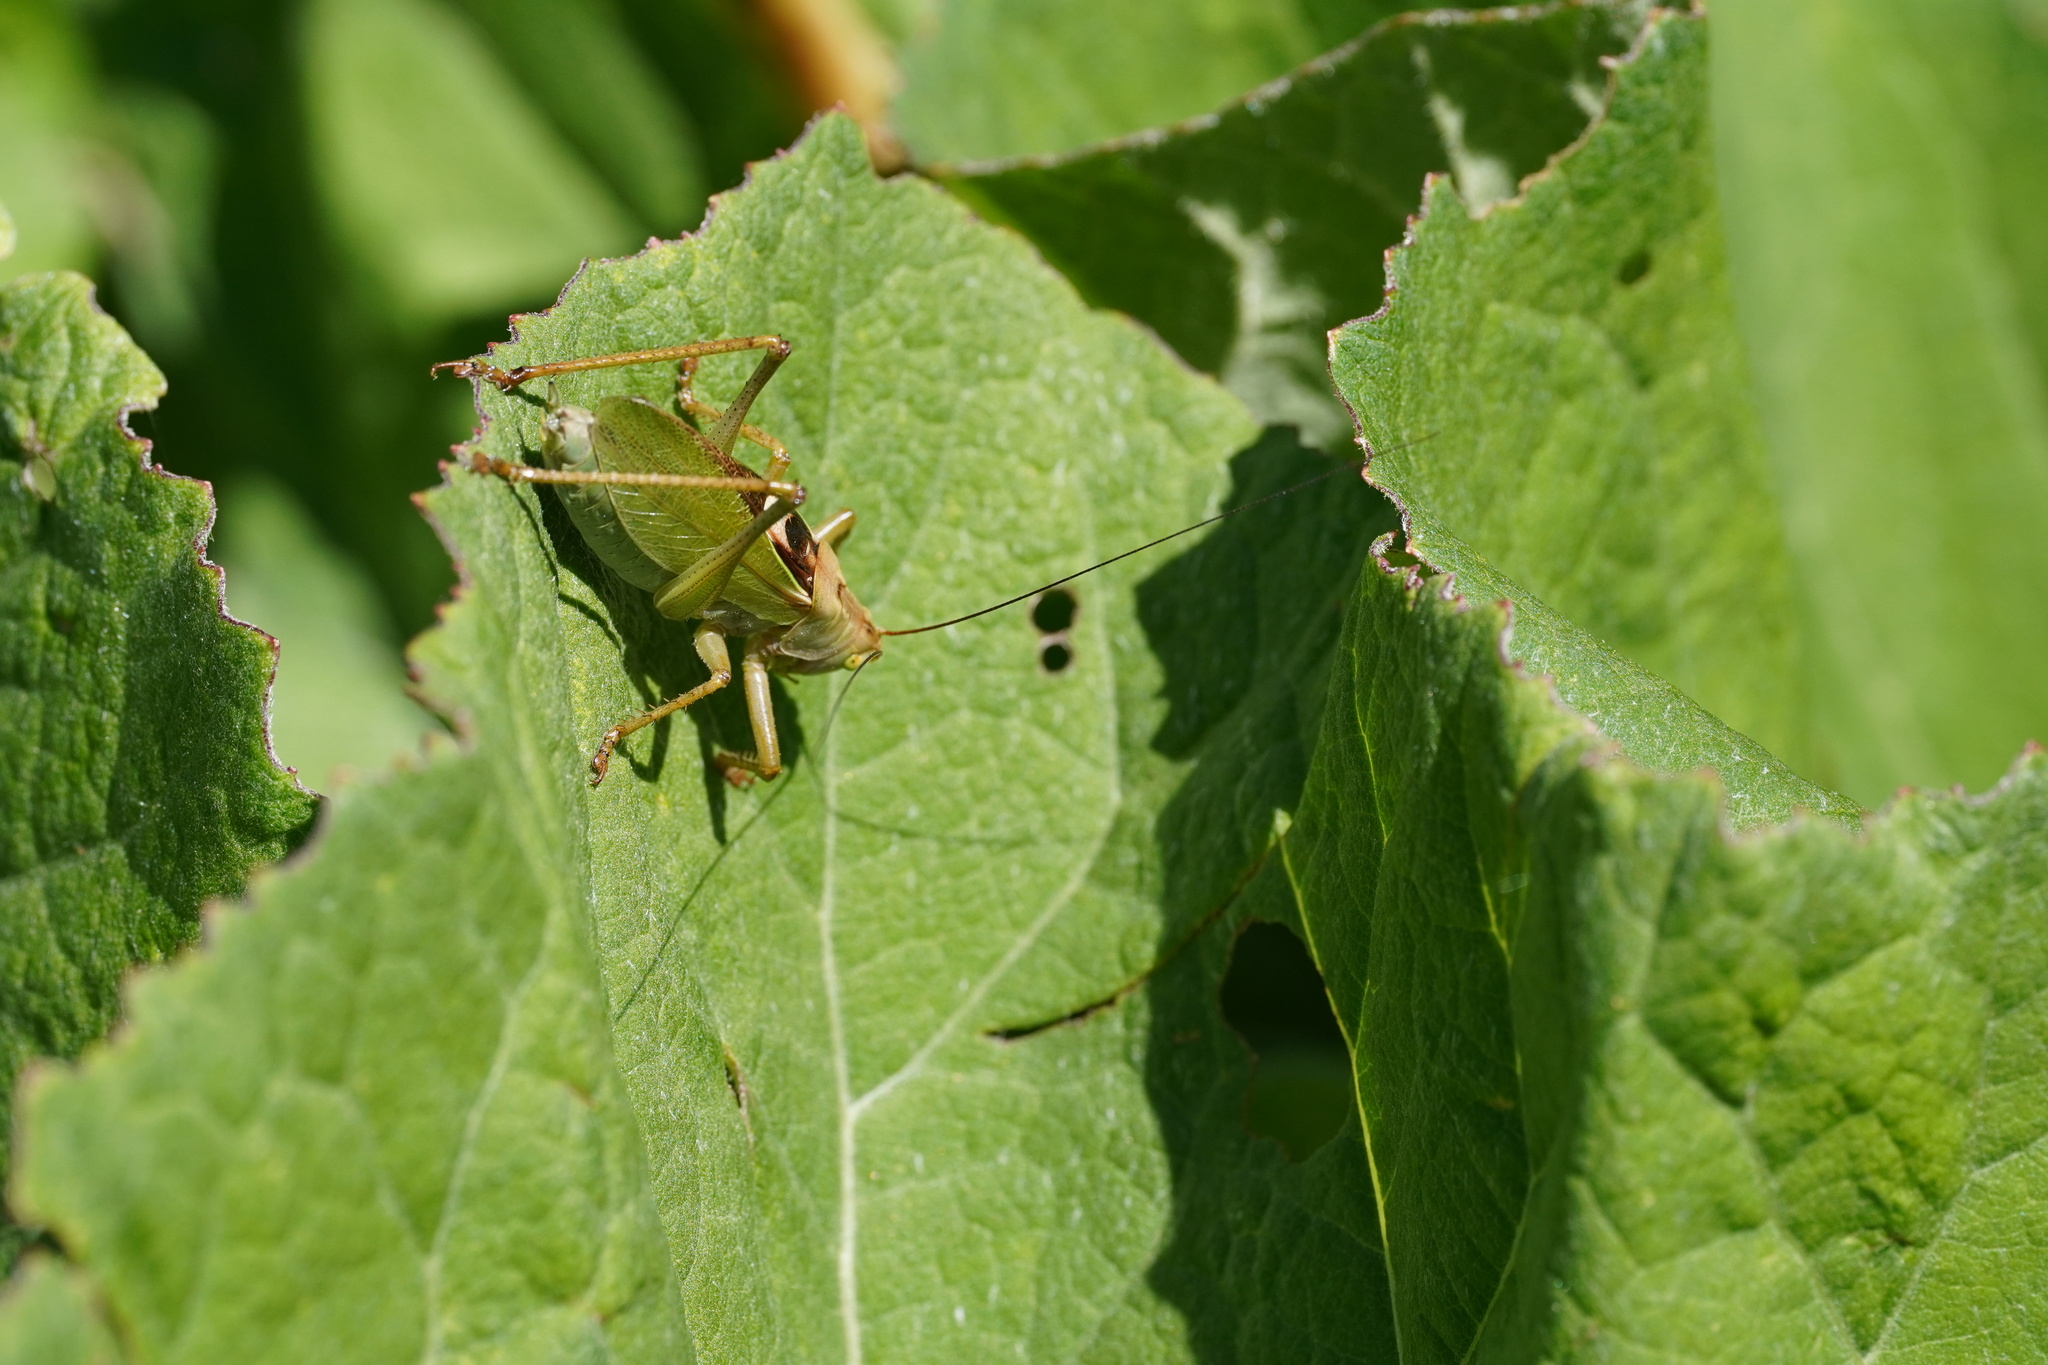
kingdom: Animalia
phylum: Arthropoda
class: Insecta
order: Orthoptera
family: Tettigoniidae
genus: Tettigonia
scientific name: Tettigonia cantans
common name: Upland green bush-cricket
